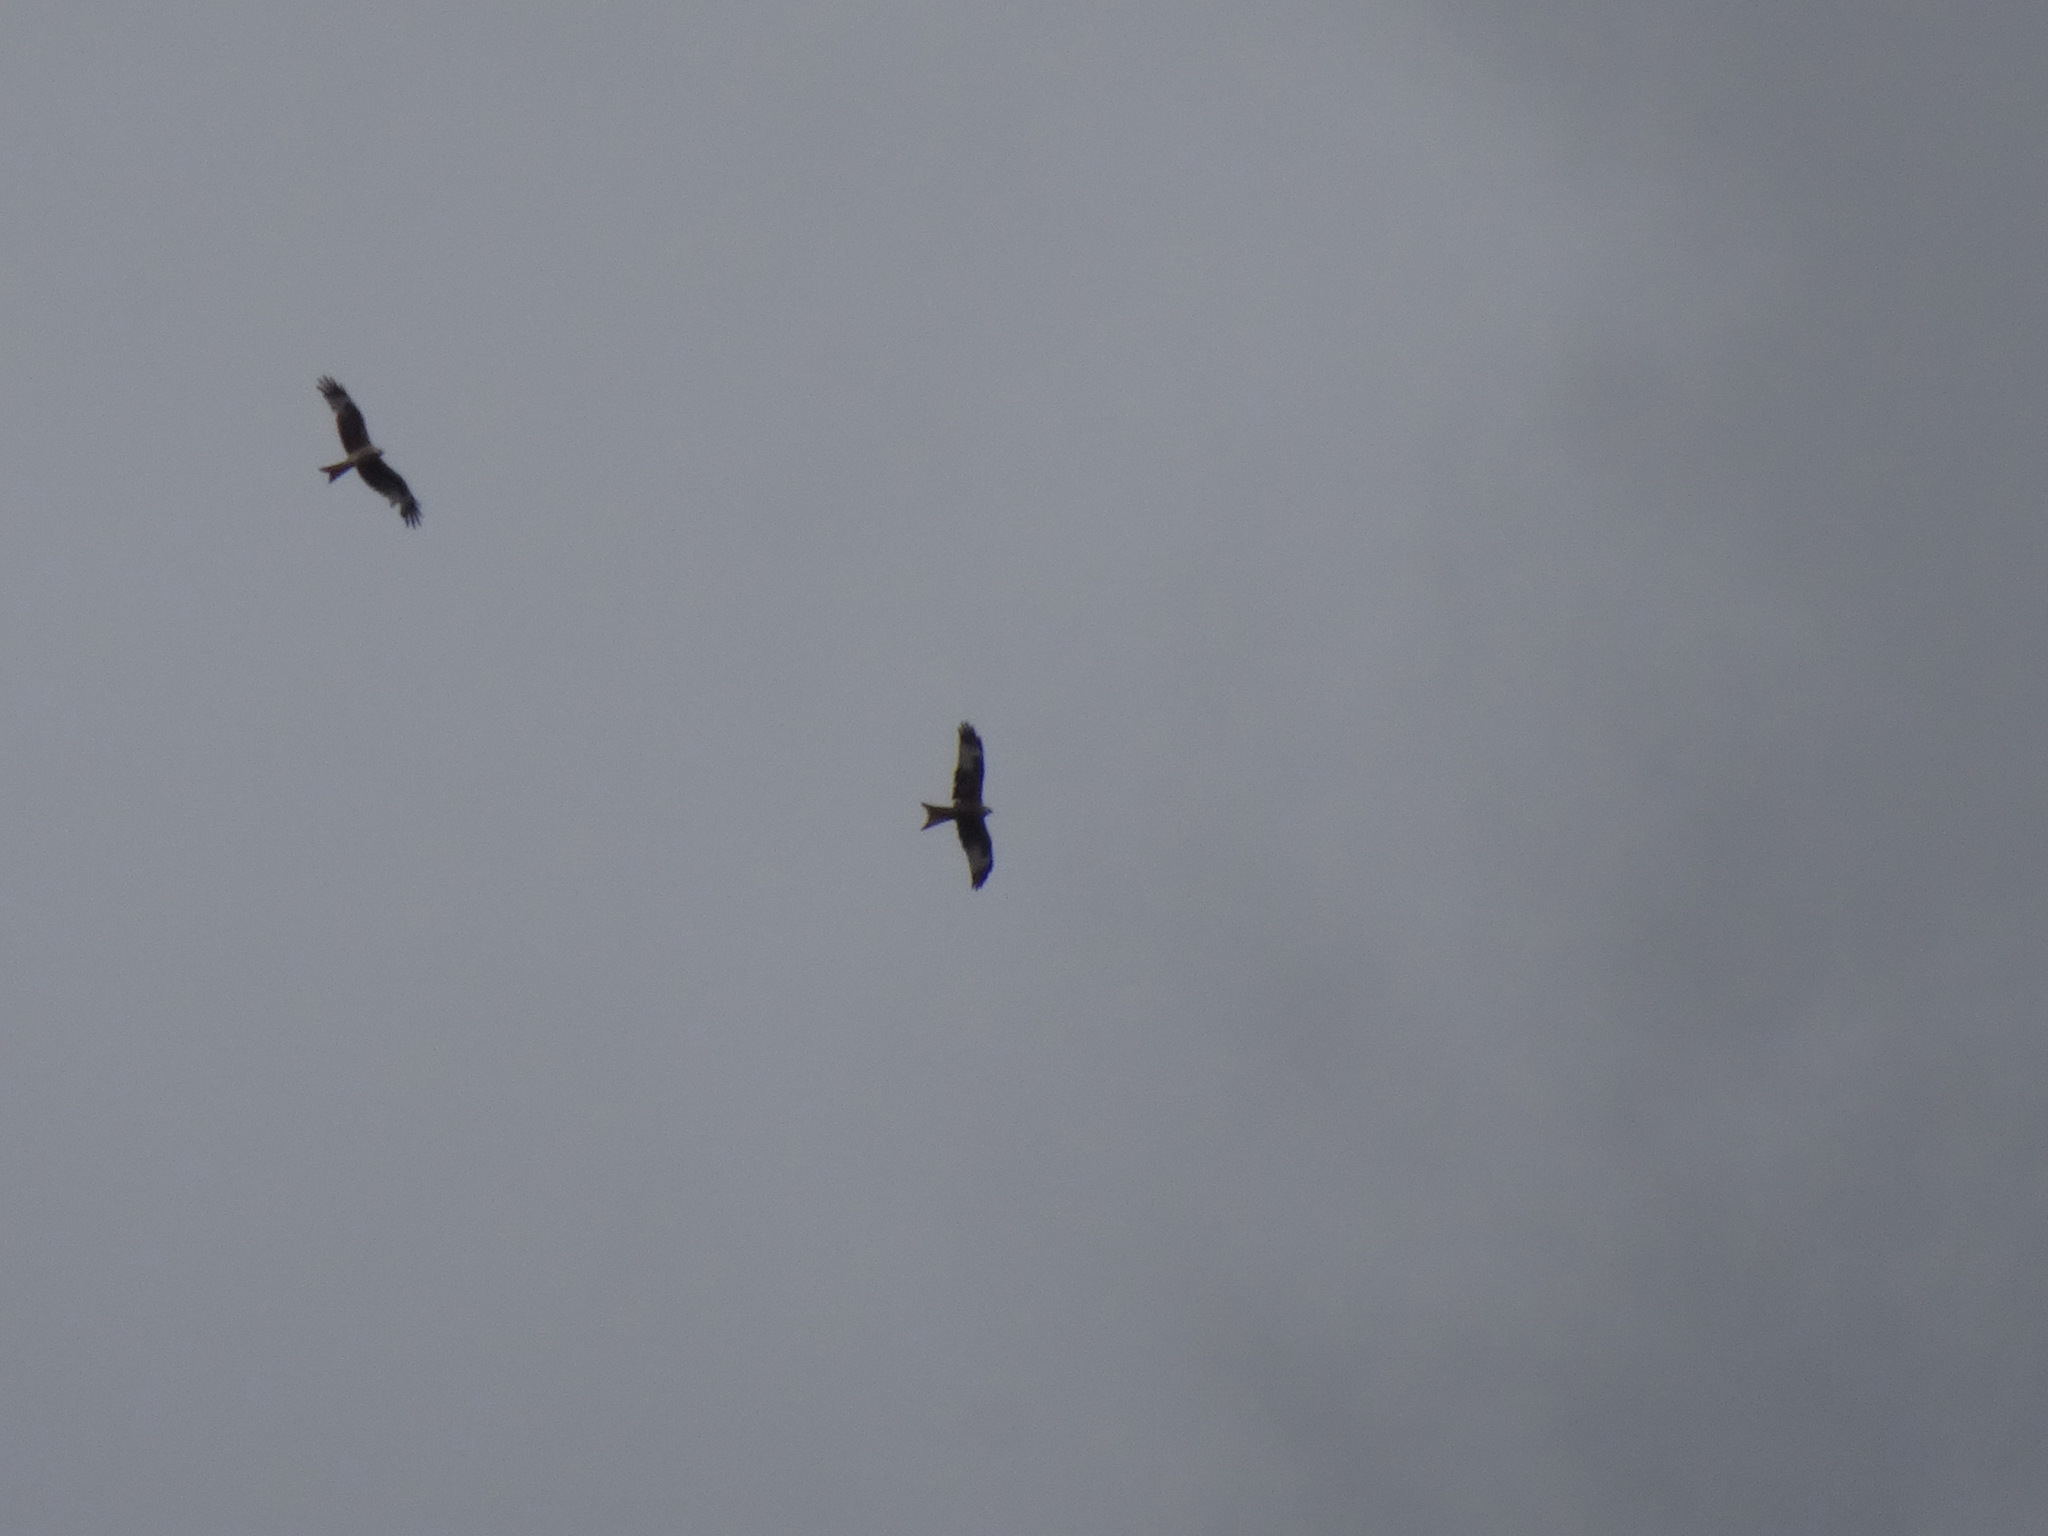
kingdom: Animalia
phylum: Chordata
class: Aves
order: Accipitriformes
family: Accipitridae
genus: Milvus
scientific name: Milvus milvus
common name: Red kite
